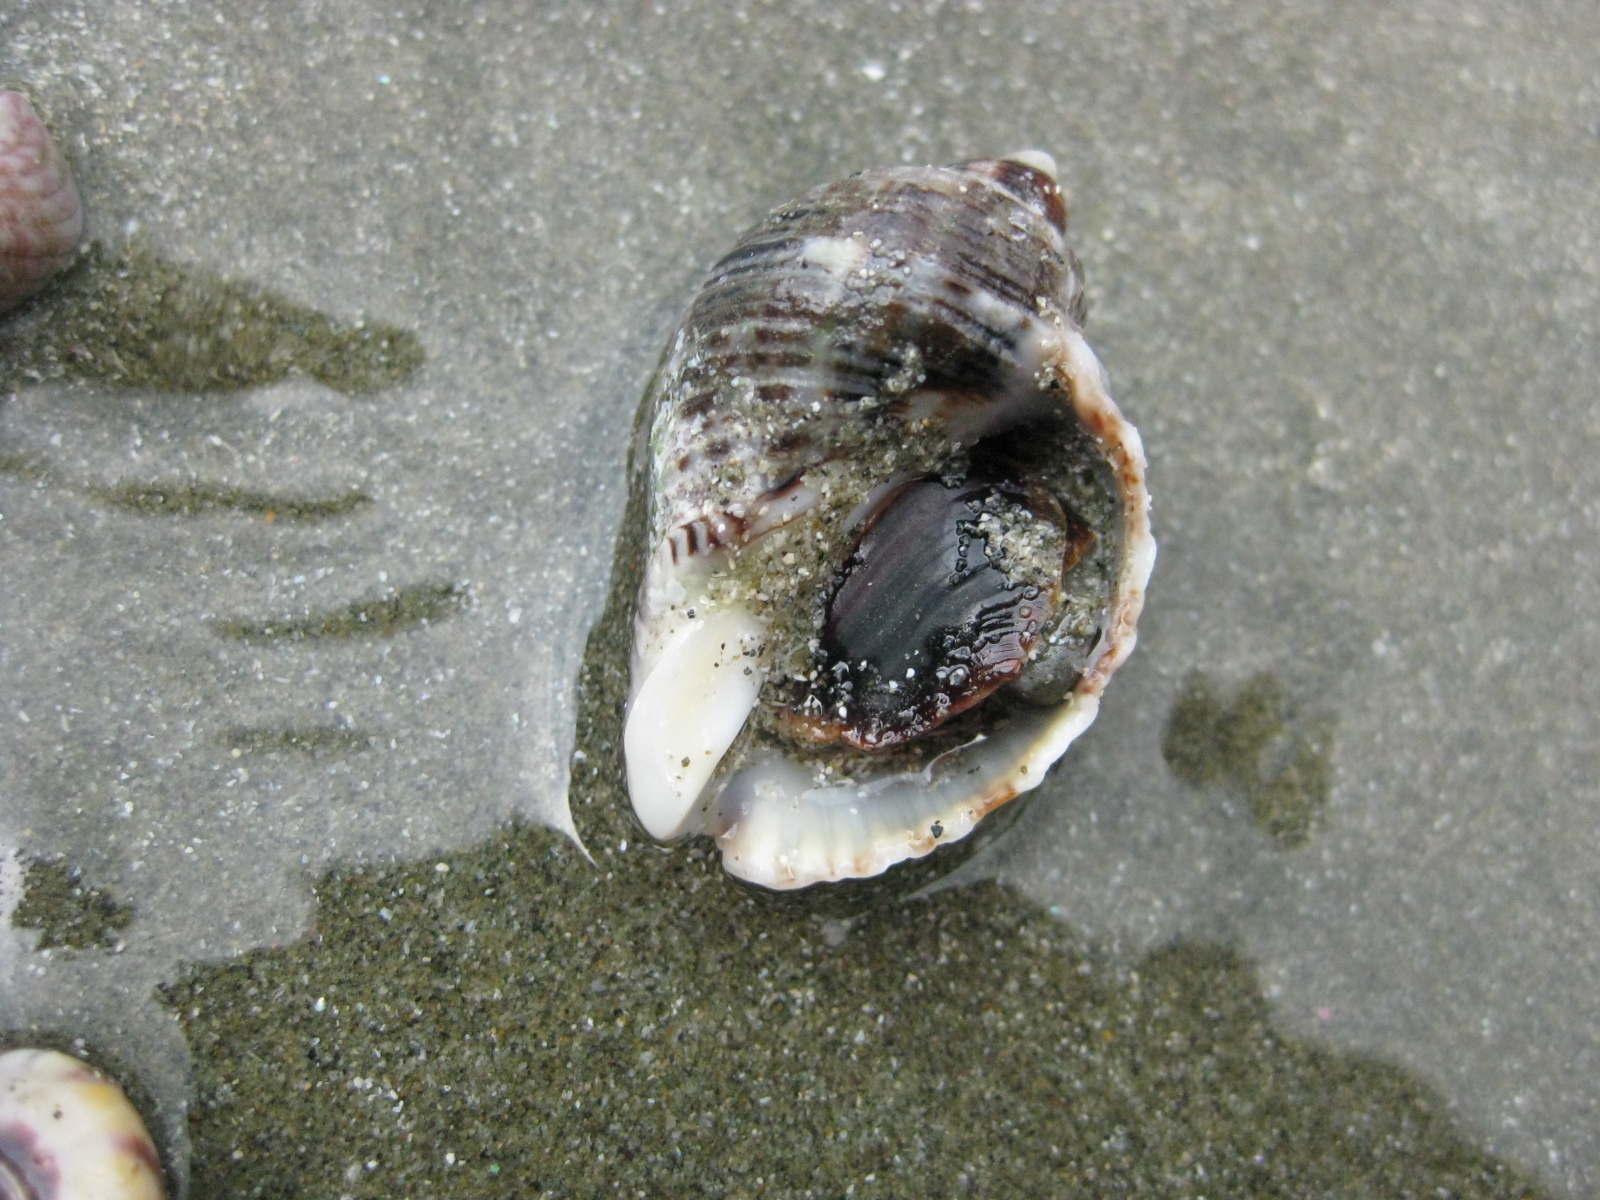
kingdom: Animalia
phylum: Mollusca
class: Gastropoda
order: Neogastropoda
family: Muricidae
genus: Dicathais
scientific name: Dicathais orbita
